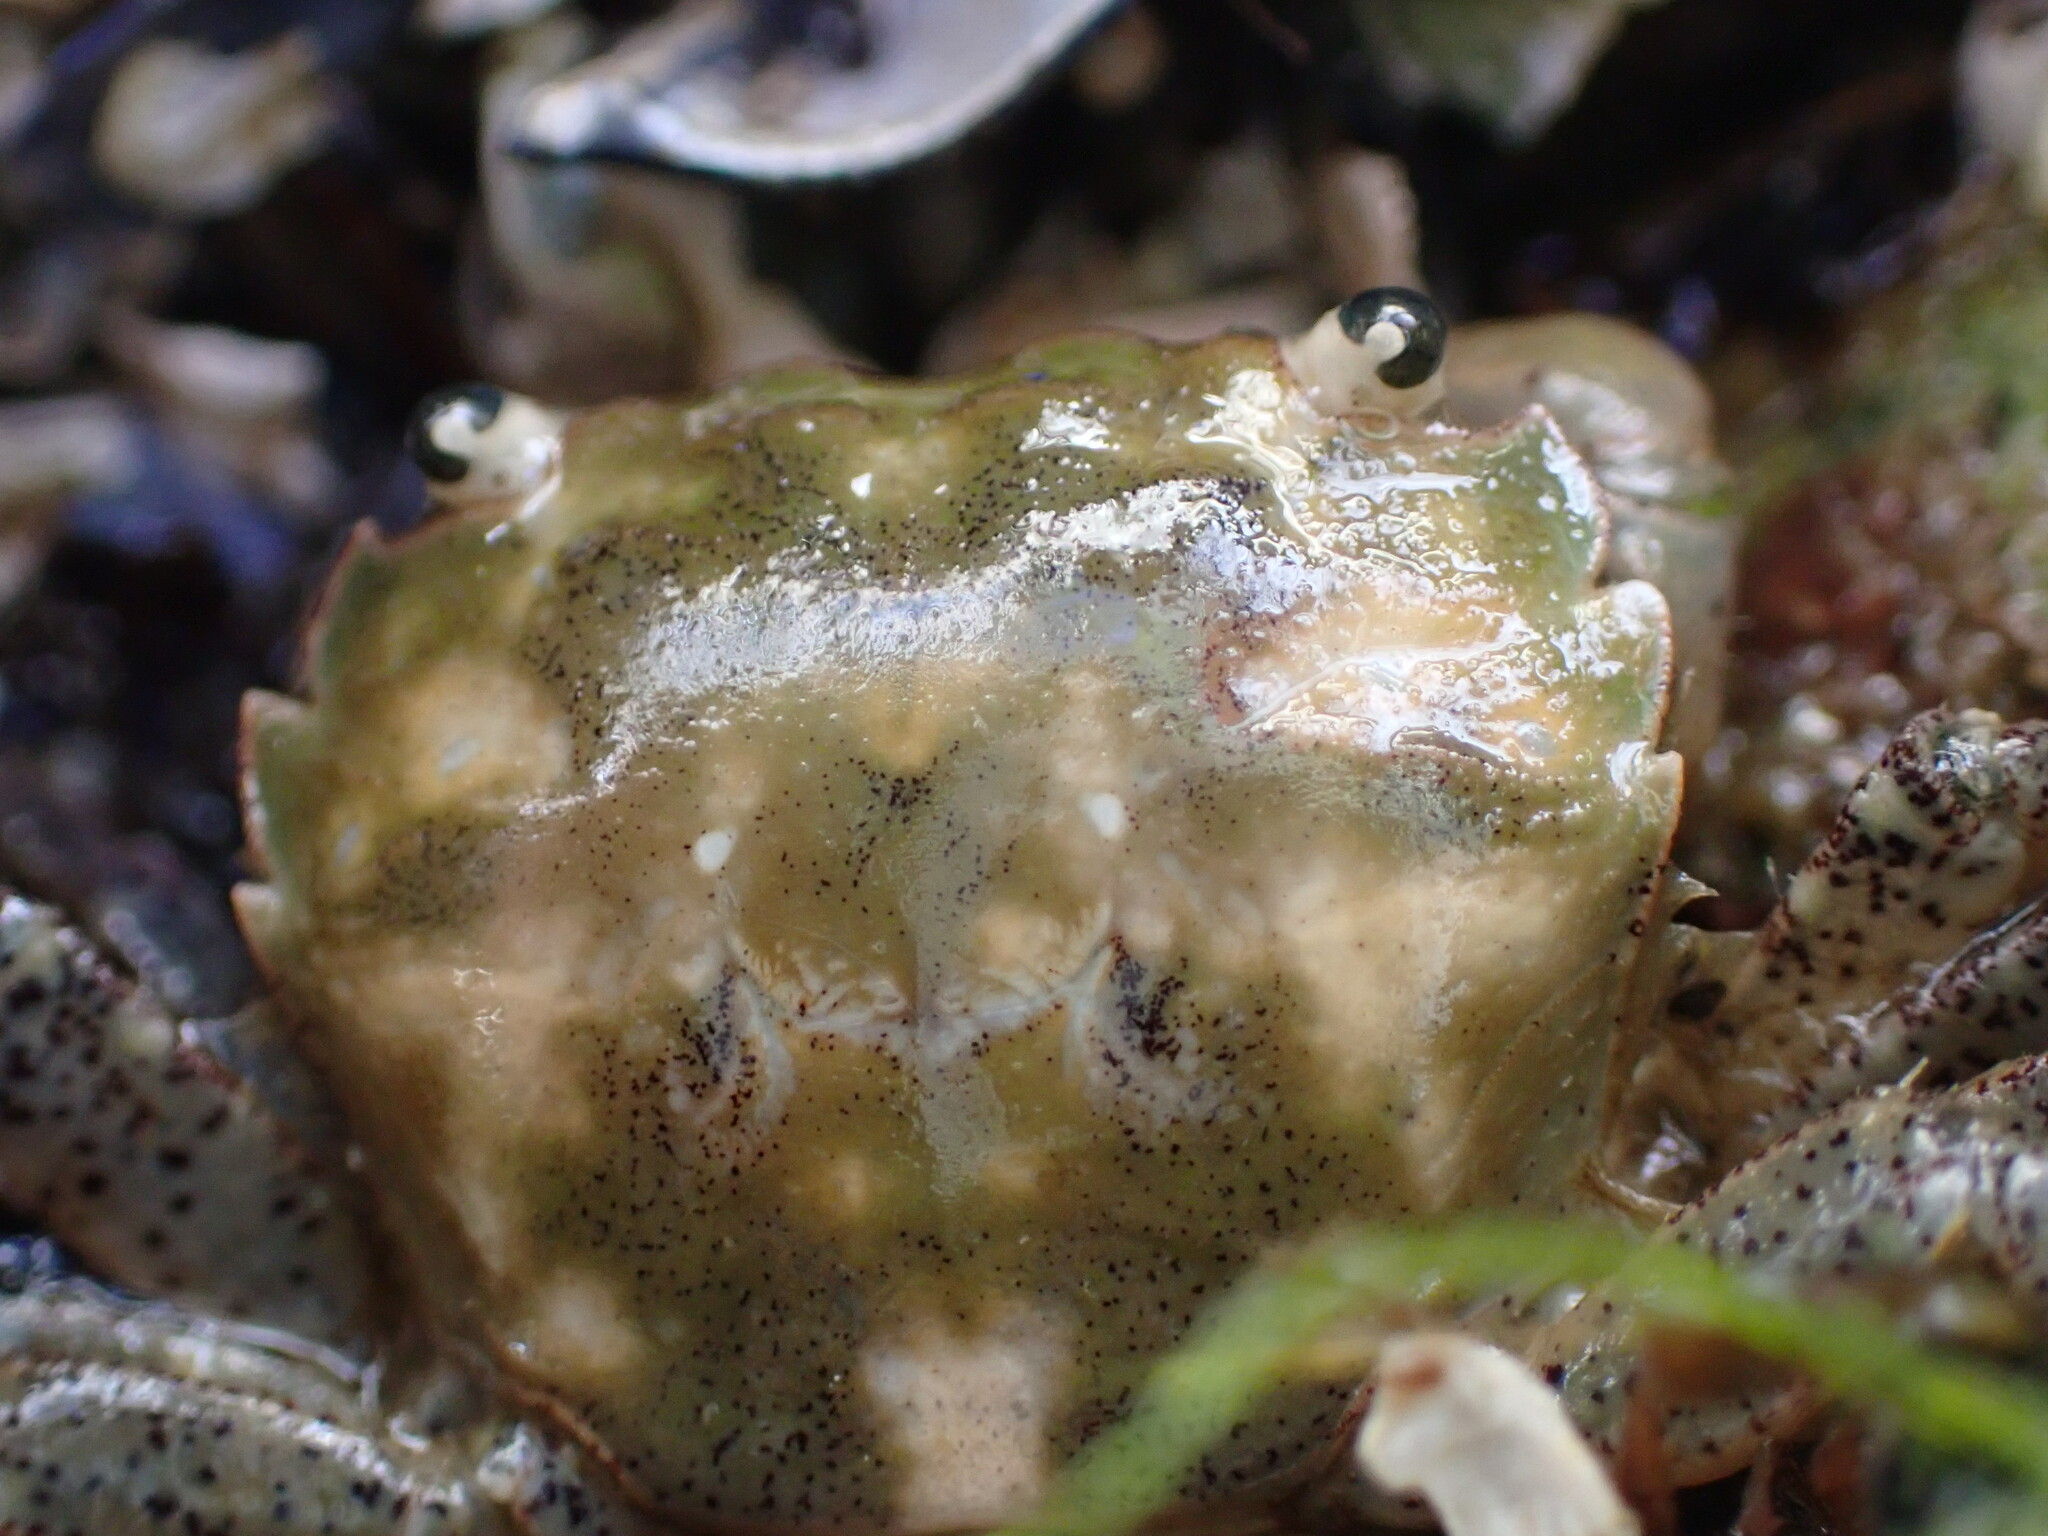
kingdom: Animalia
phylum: Arthropoda
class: Malacostraca
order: Decapoda
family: Varunidae
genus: Hemigrapsus
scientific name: Hemigrapsus oregonensis
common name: Yellow shore crab
